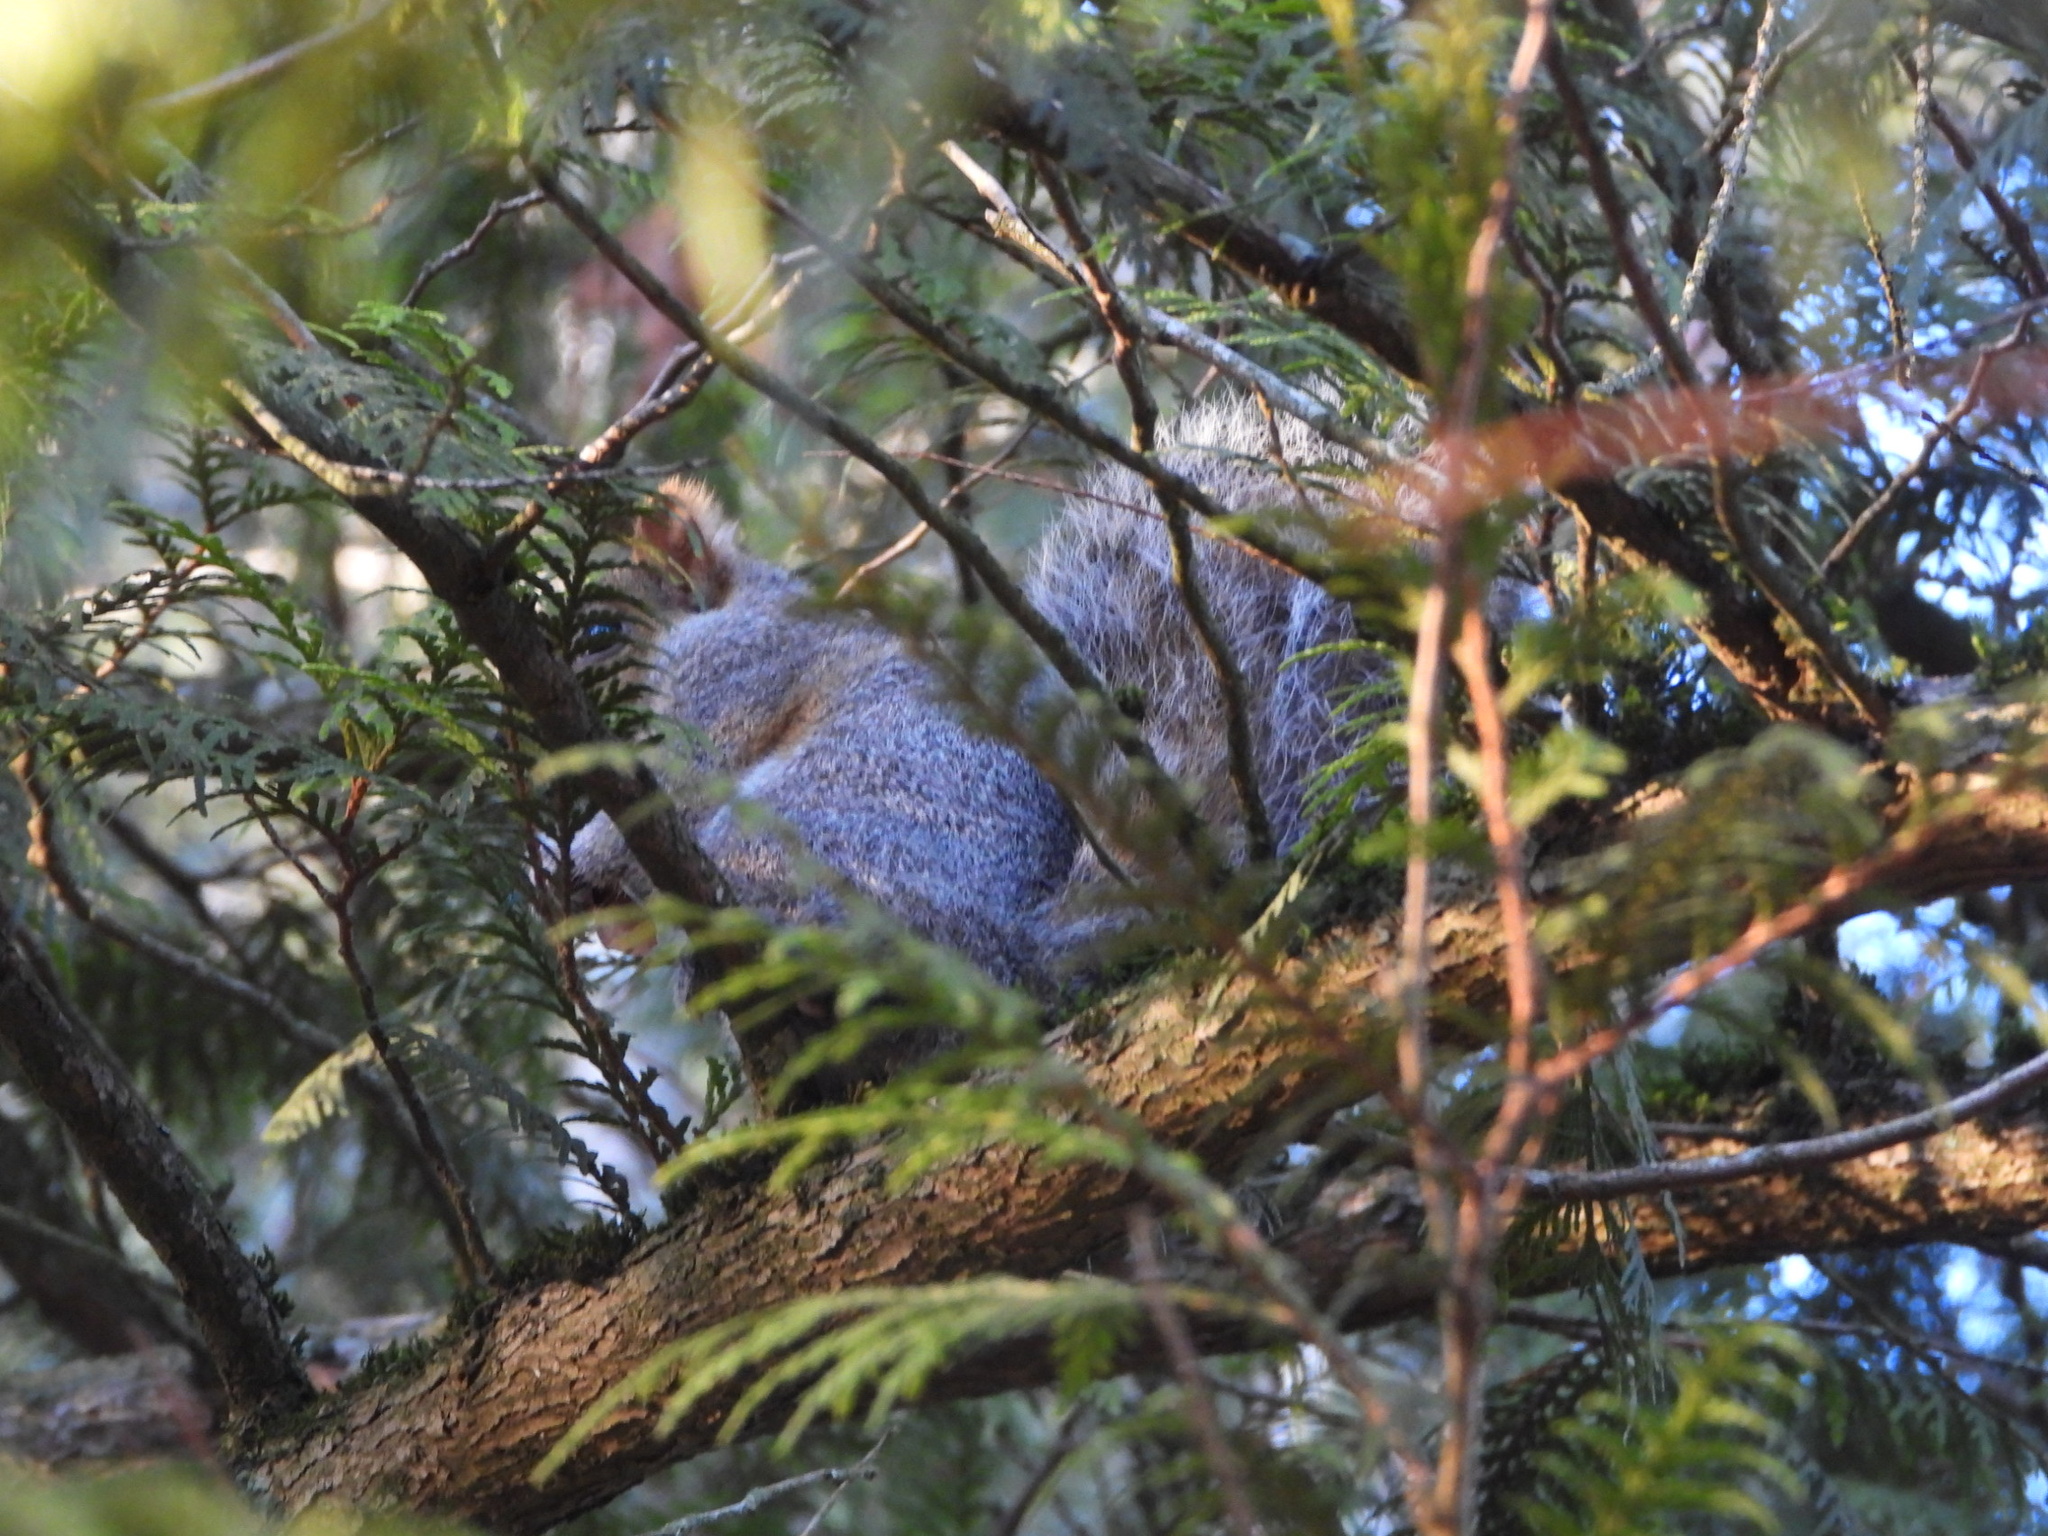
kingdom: Animalia
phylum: Chordata
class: Mammalia
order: Rodentia
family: Sciuridae
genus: Sciurus
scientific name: Sciurus carolinensis
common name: Eastern gray squirrel
